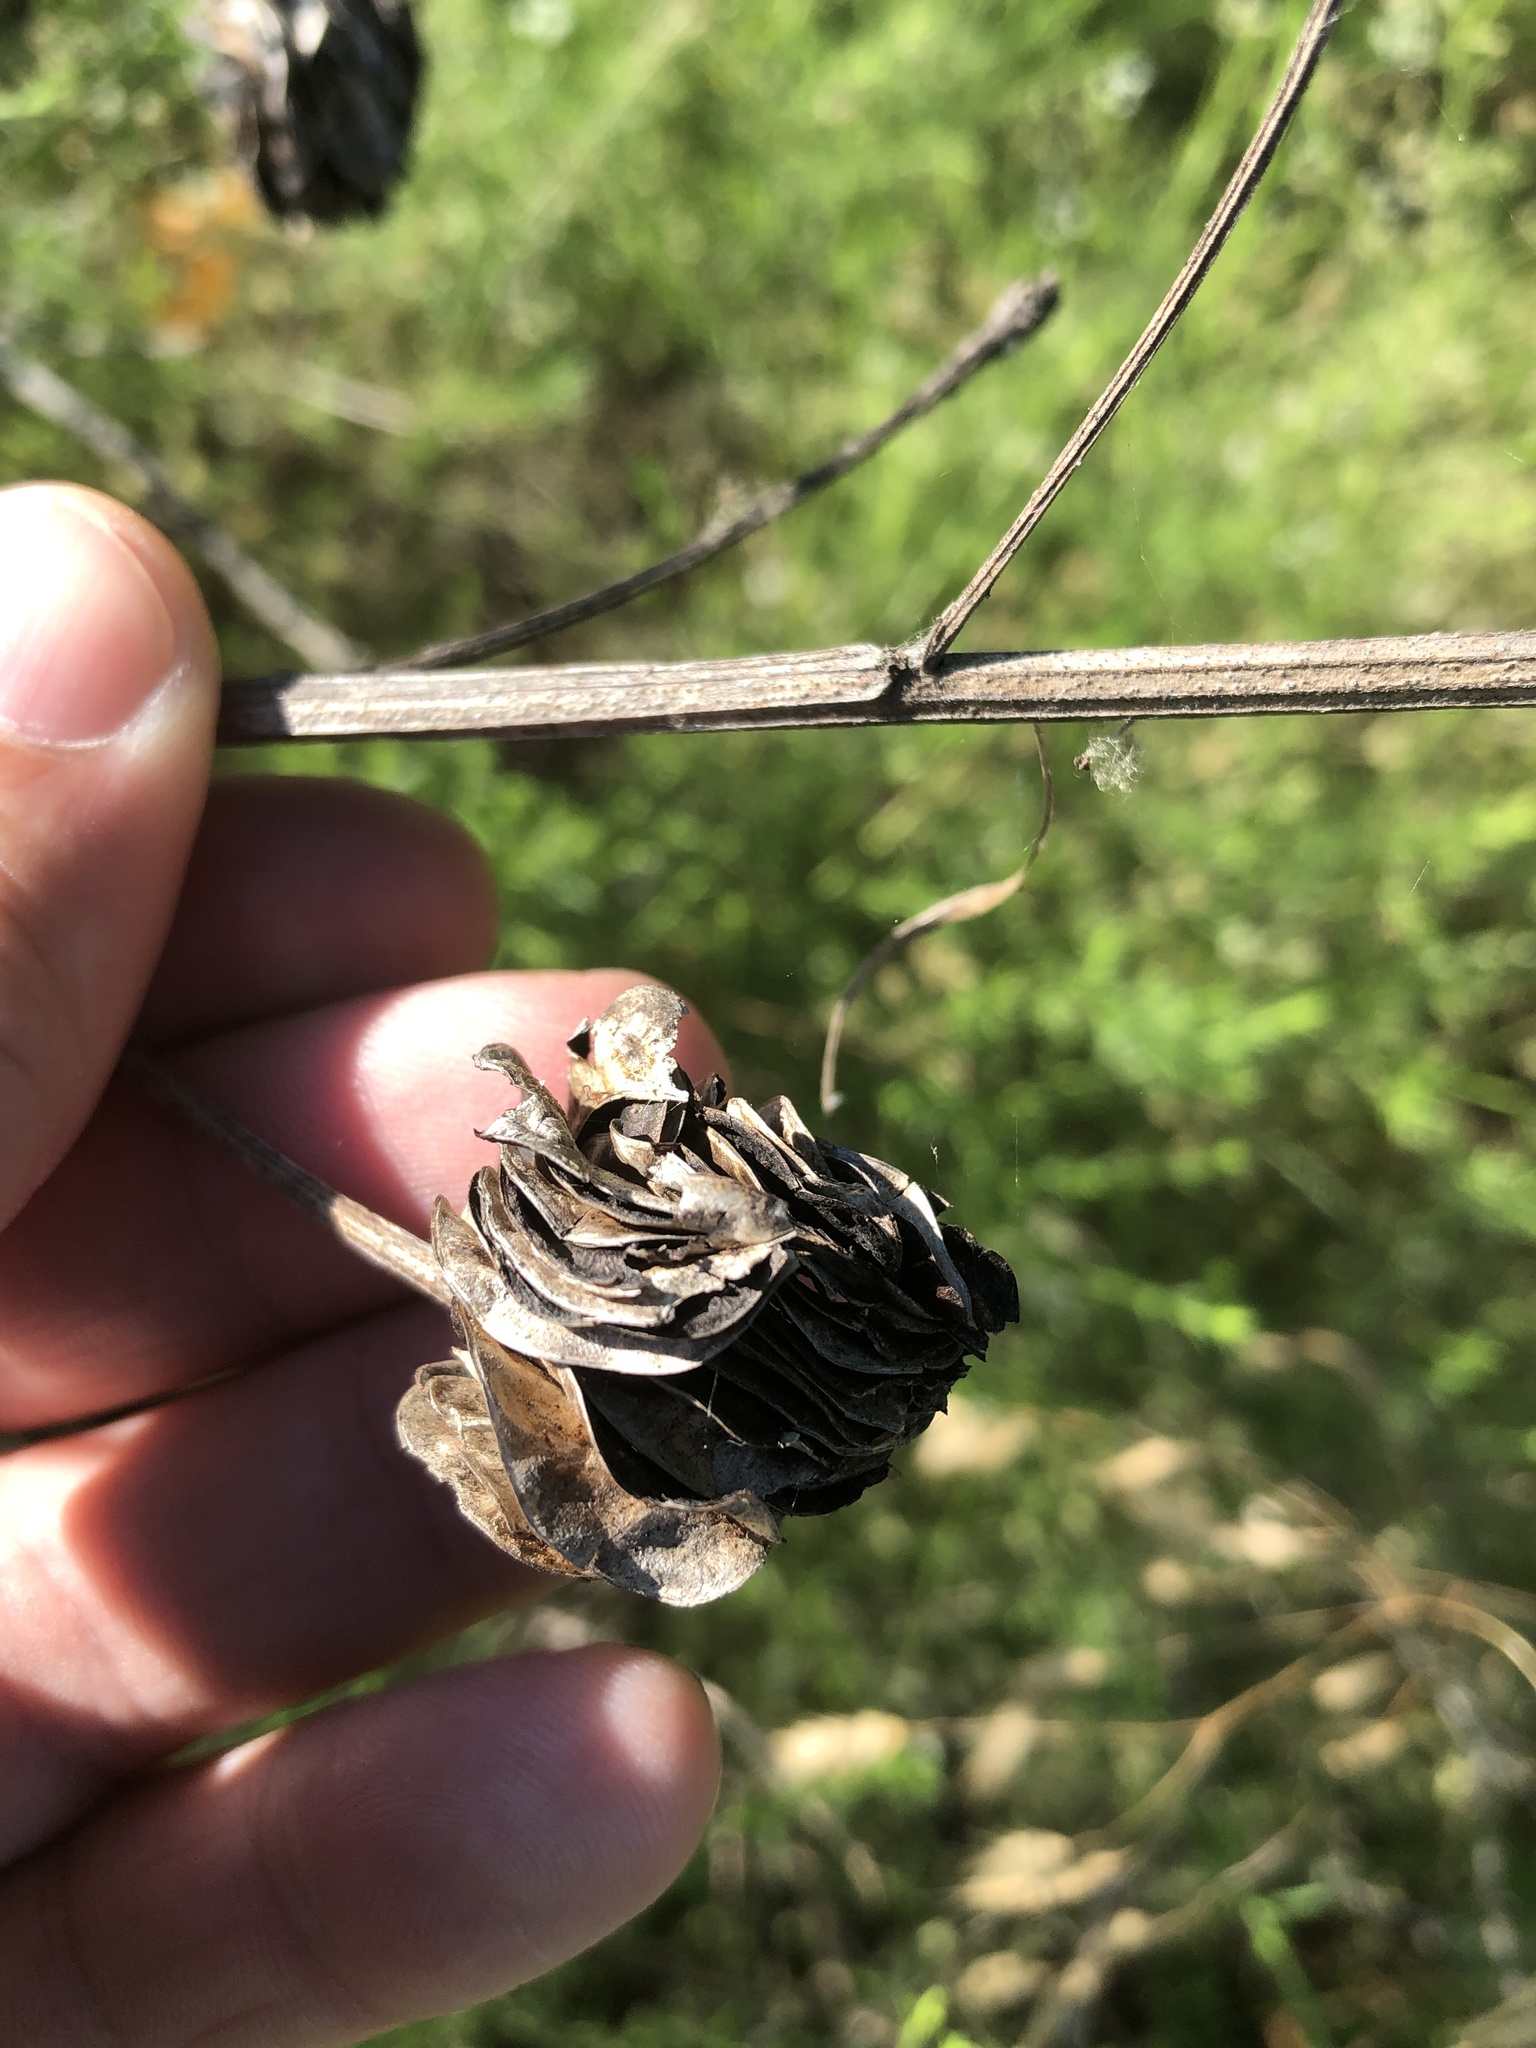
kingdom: Plantae
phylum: Tracheophyta
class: Magnoliopsida
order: Fabales
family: Fabaceae
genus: Desmanthus
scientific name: Desmanthus illinoensis
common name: Illinois bundle-flower
